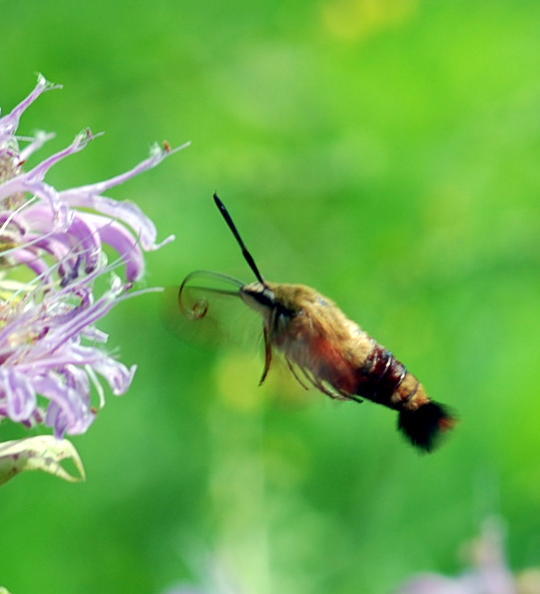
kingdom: Animalia
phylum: Arthropoda
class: Insecta
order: Lepidoptera
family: Sphingidae
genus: Hemaris
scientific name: Hemaris thysbe
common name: Common clear-wing
